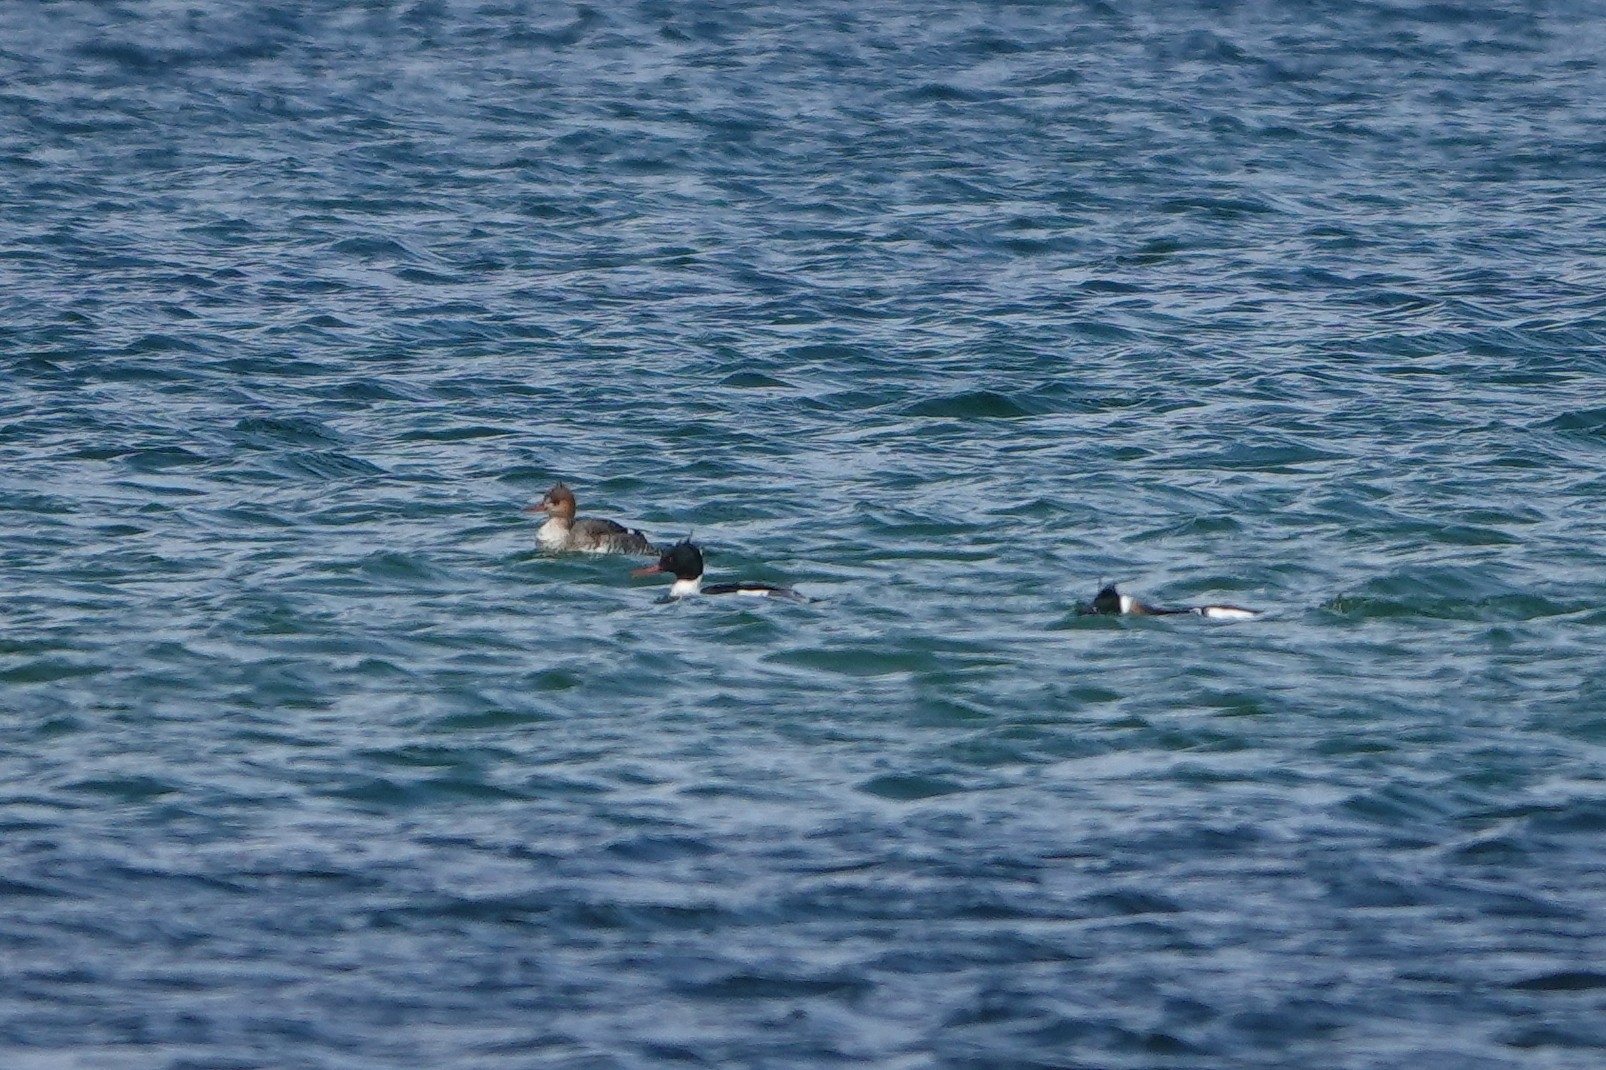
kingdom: Animalia
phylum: Chordata
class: Aves
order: Anseriformes
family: Anatidae
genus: Mergus
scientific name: Mergus serrator
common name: Red-breasted merganser
